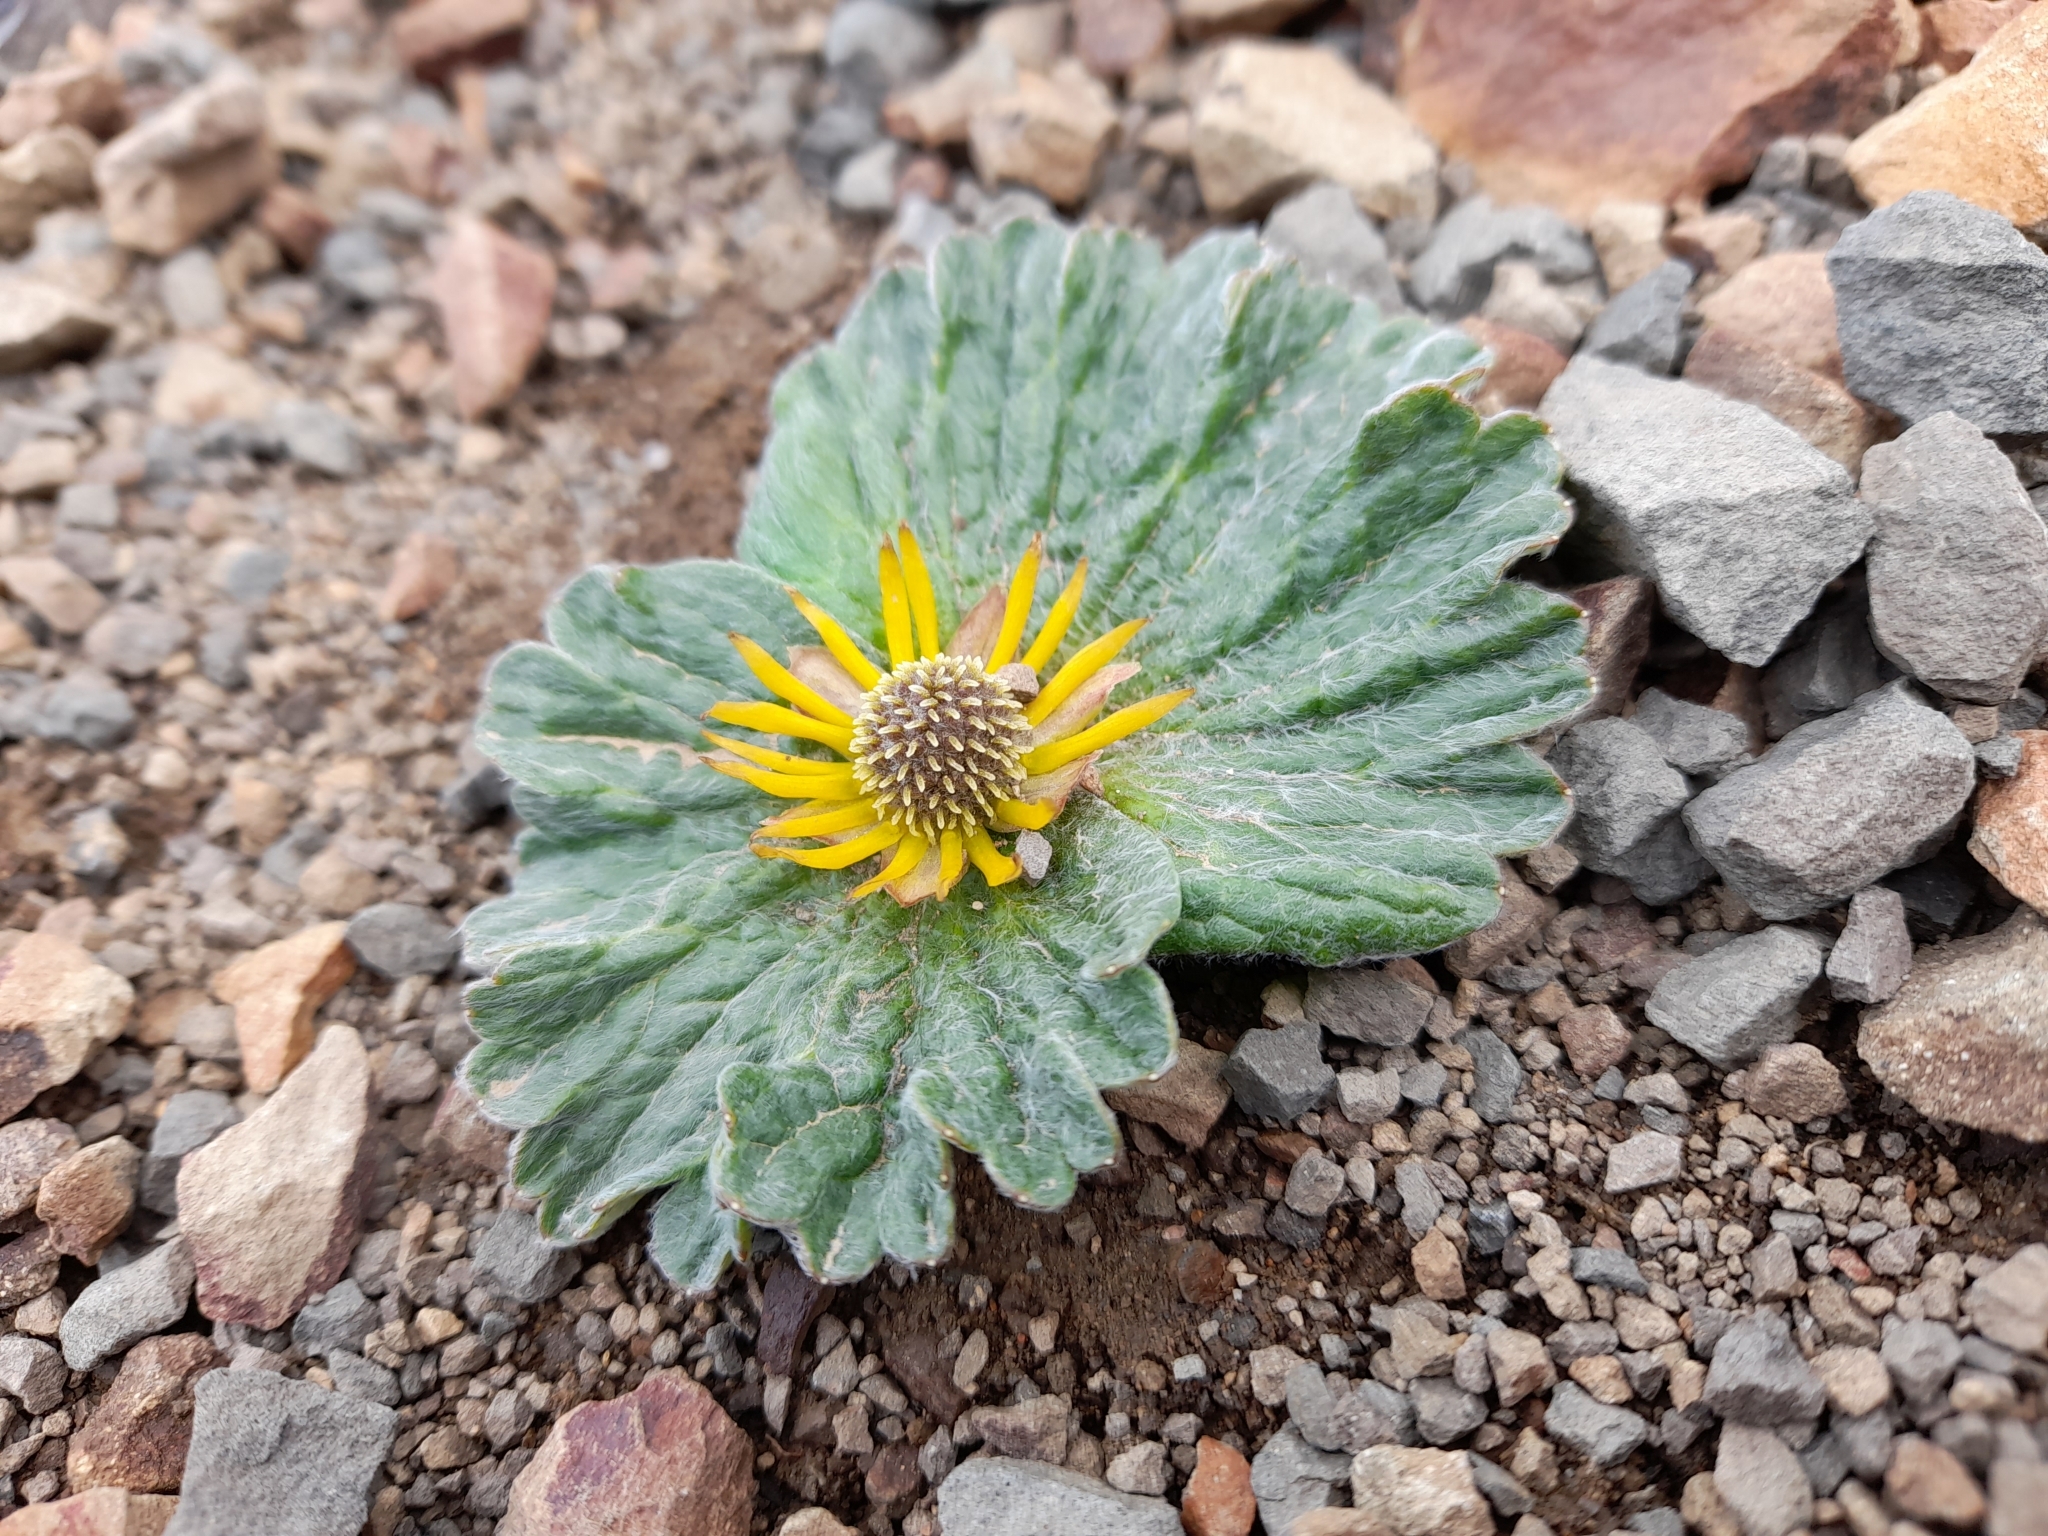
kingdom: Plantae
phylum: Tracheophyta
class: Magnoliopsida
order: Ranunculales
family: Ranunculaceae
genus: Hamadryas
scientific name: Hamadryas kingii
